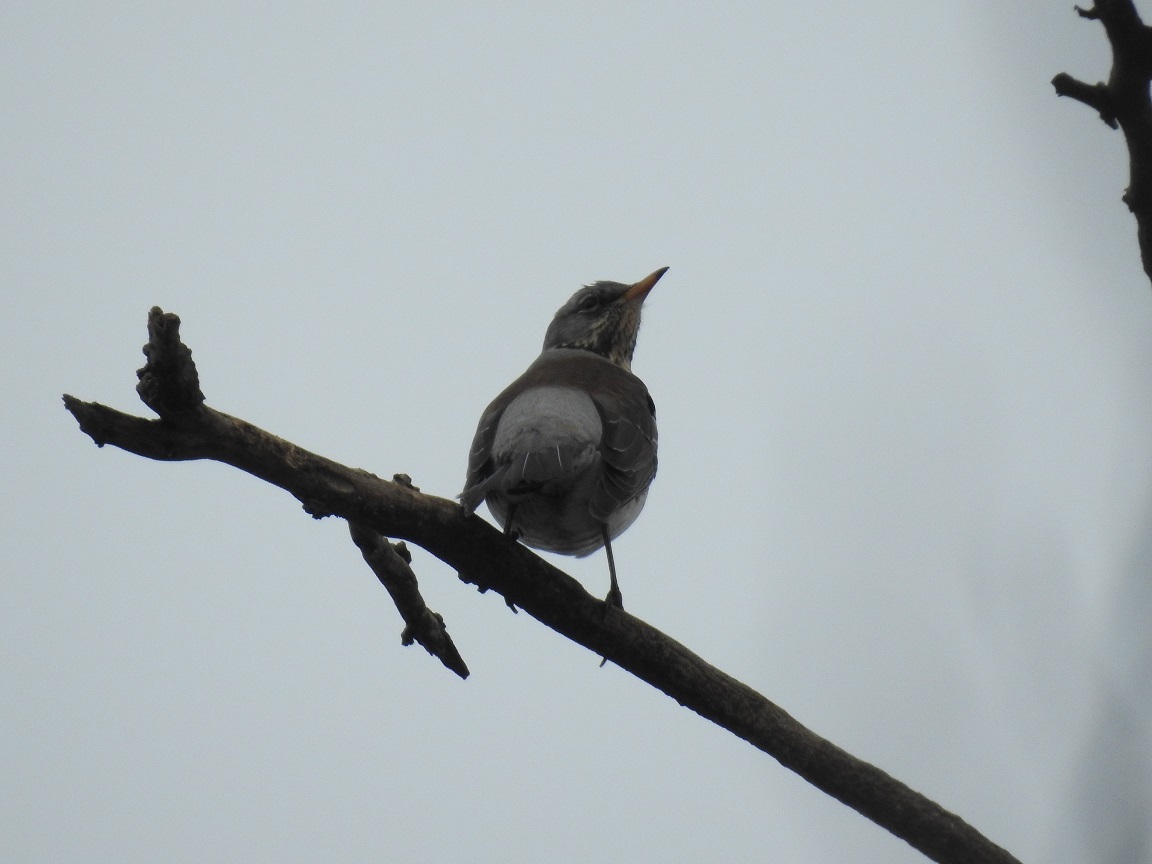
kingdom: Animalia
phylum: Chordata
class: Aves
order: Passeriformes
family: Turdidae
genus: Turdus
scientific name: Turdus pilaris
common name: Fieldfare
